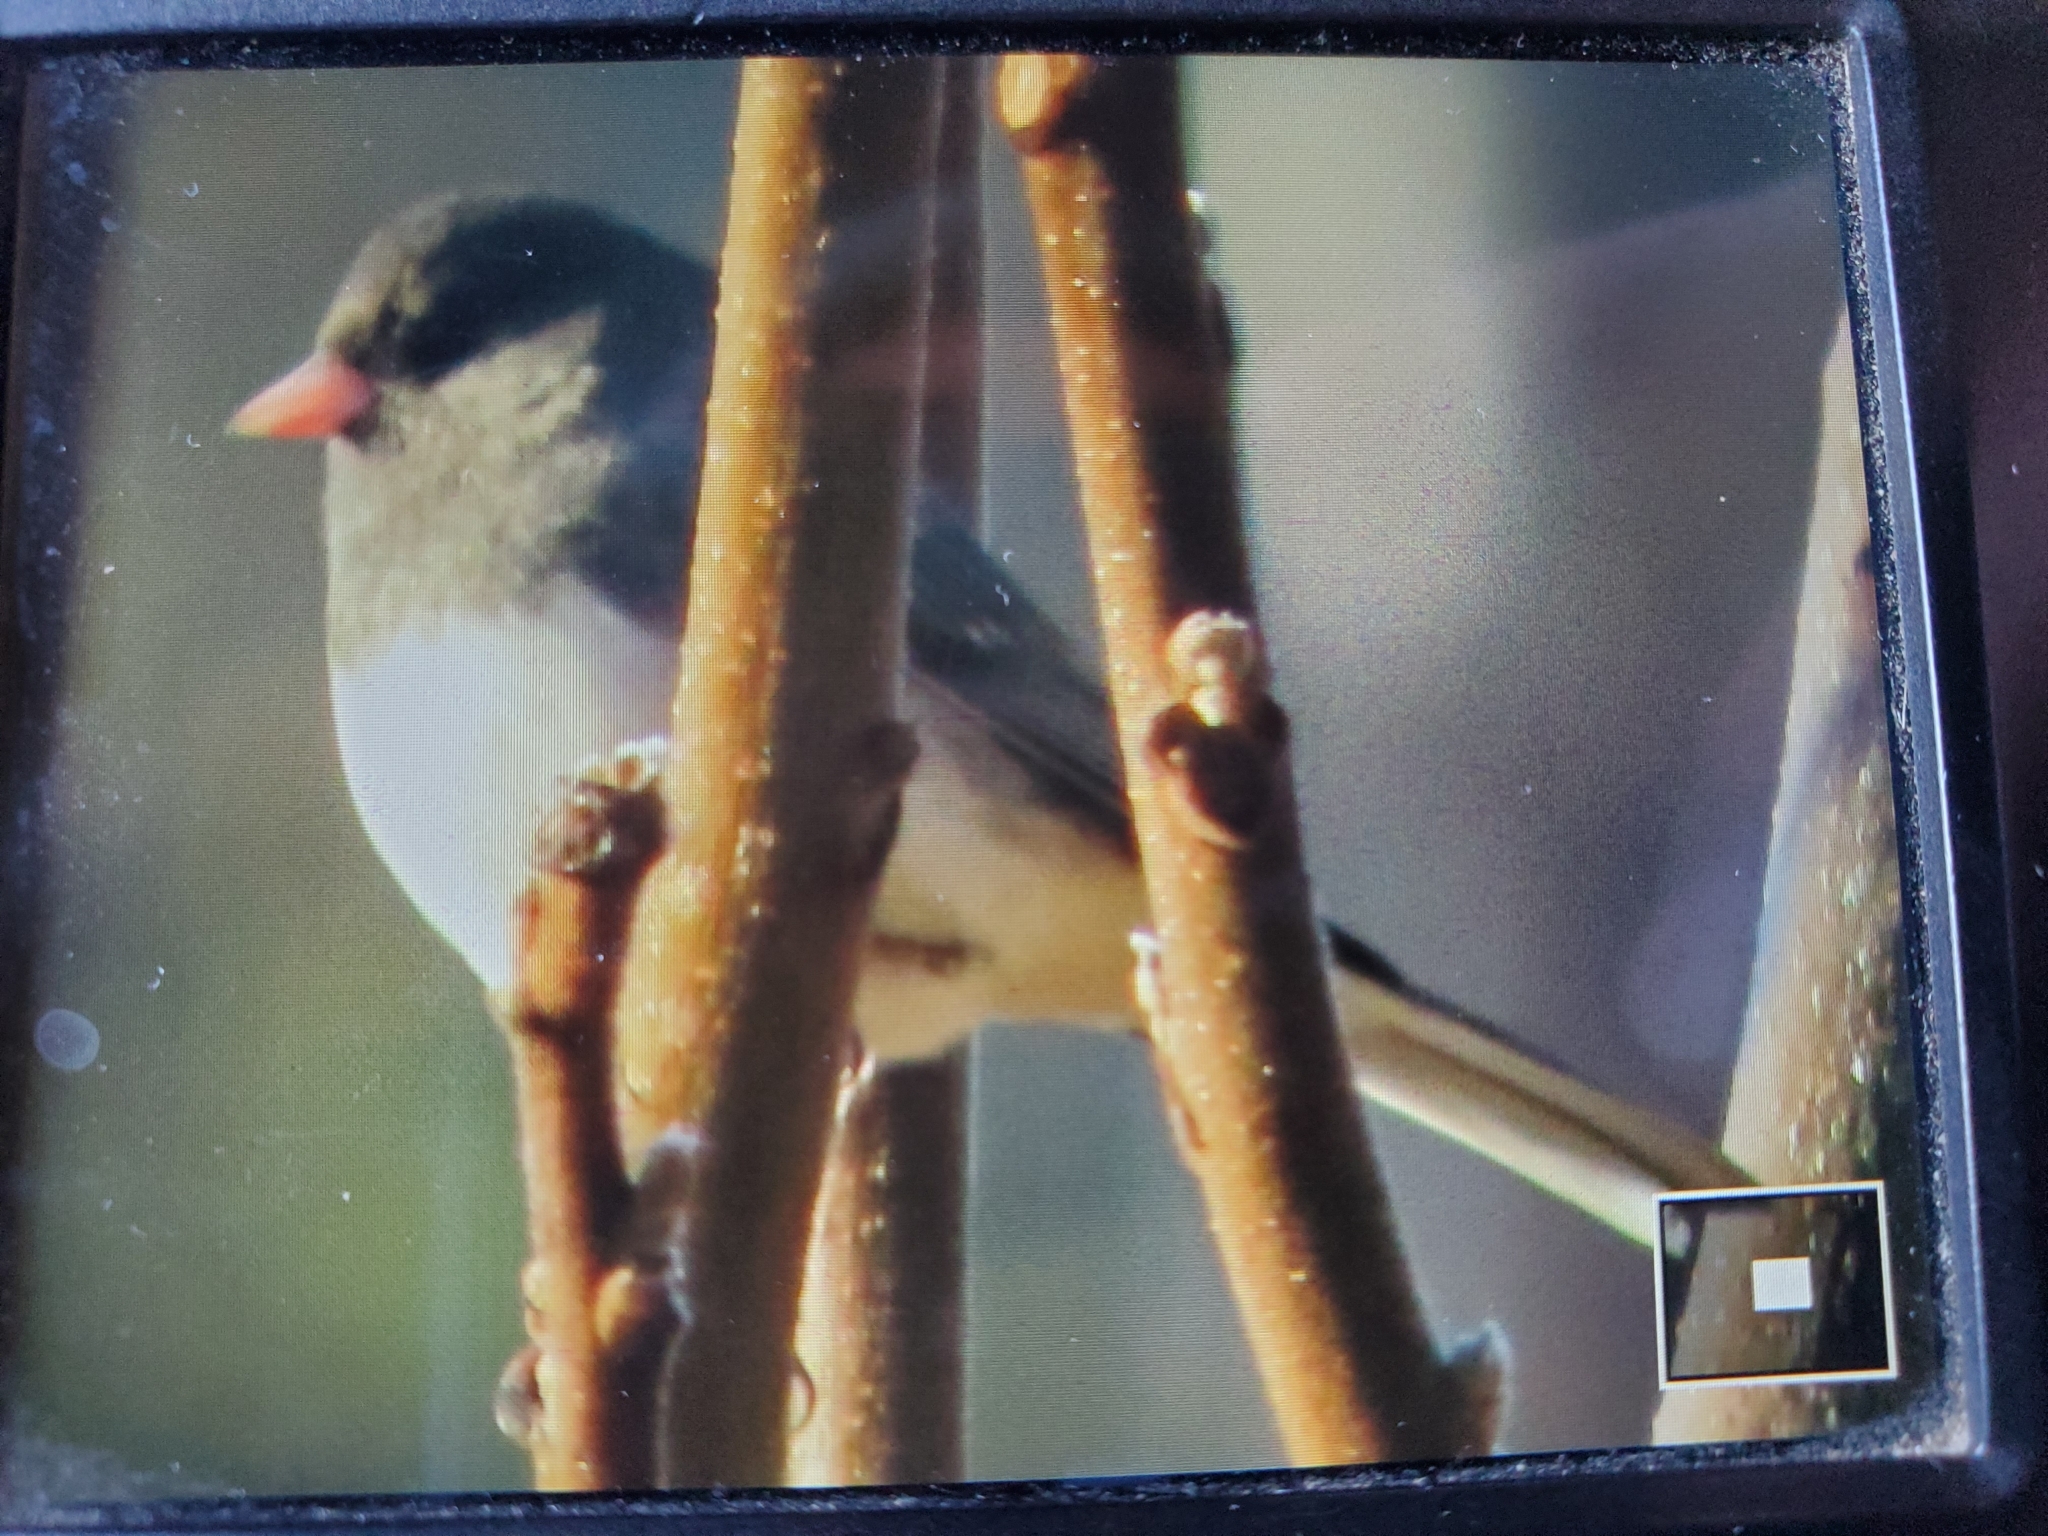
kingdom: Animalia
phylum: Chordata
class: Aves
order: Passeriformes
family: Passerellidae
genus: Junco
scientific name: Junco hyemalis
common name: Dark-eyed junco
